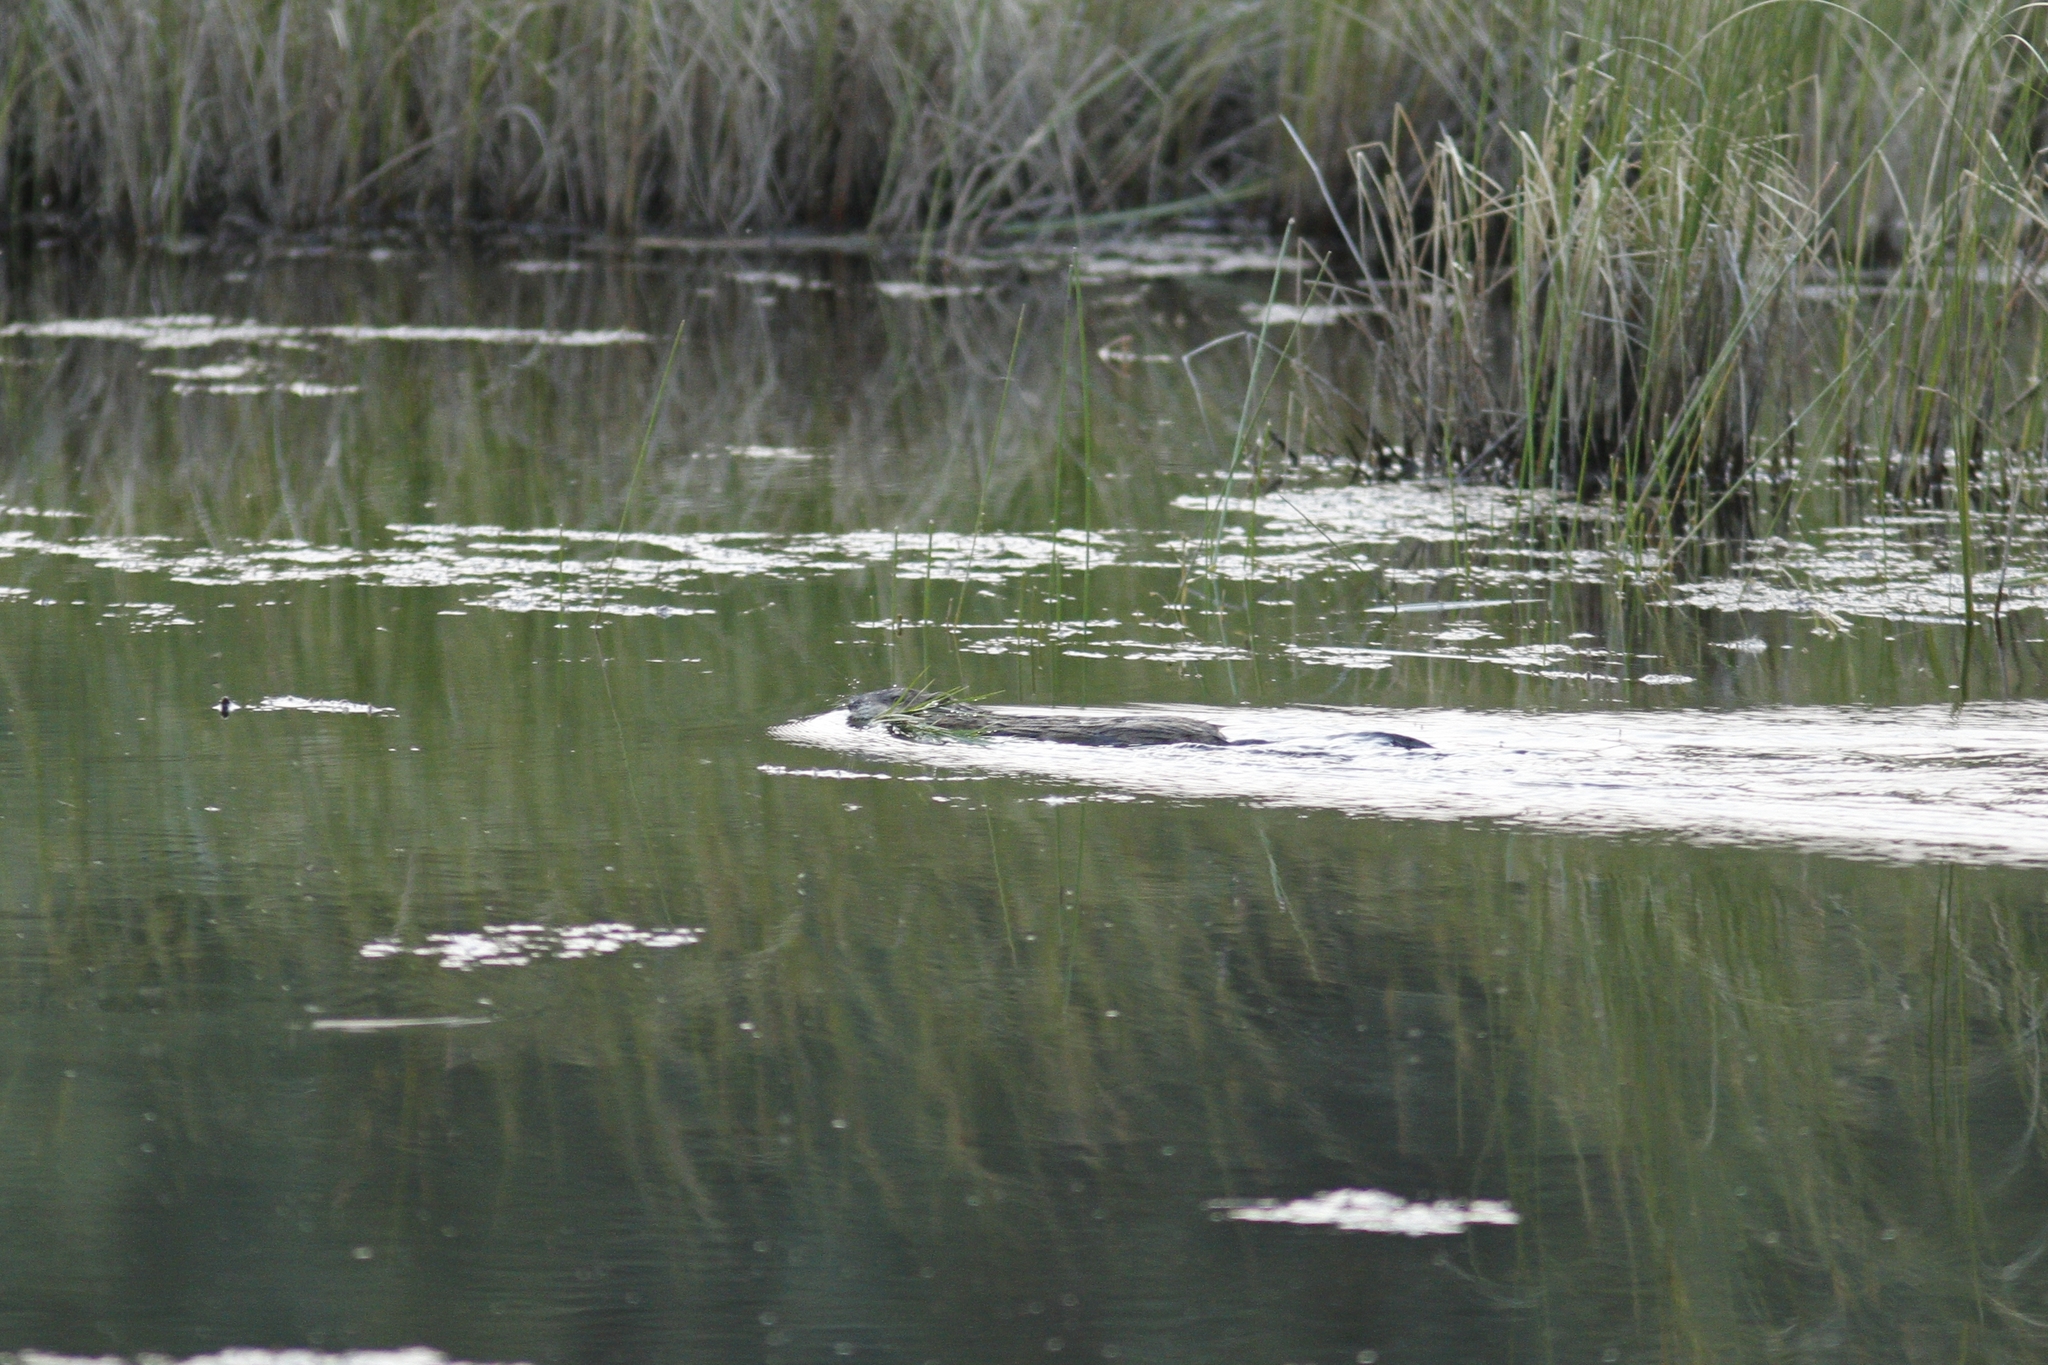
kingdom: Animalia
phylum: Chordata
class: Mammalia
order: Rodentia
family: Cricetidae
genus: Ondatra
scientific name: Ondatra zibethicus
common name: Muskrat
